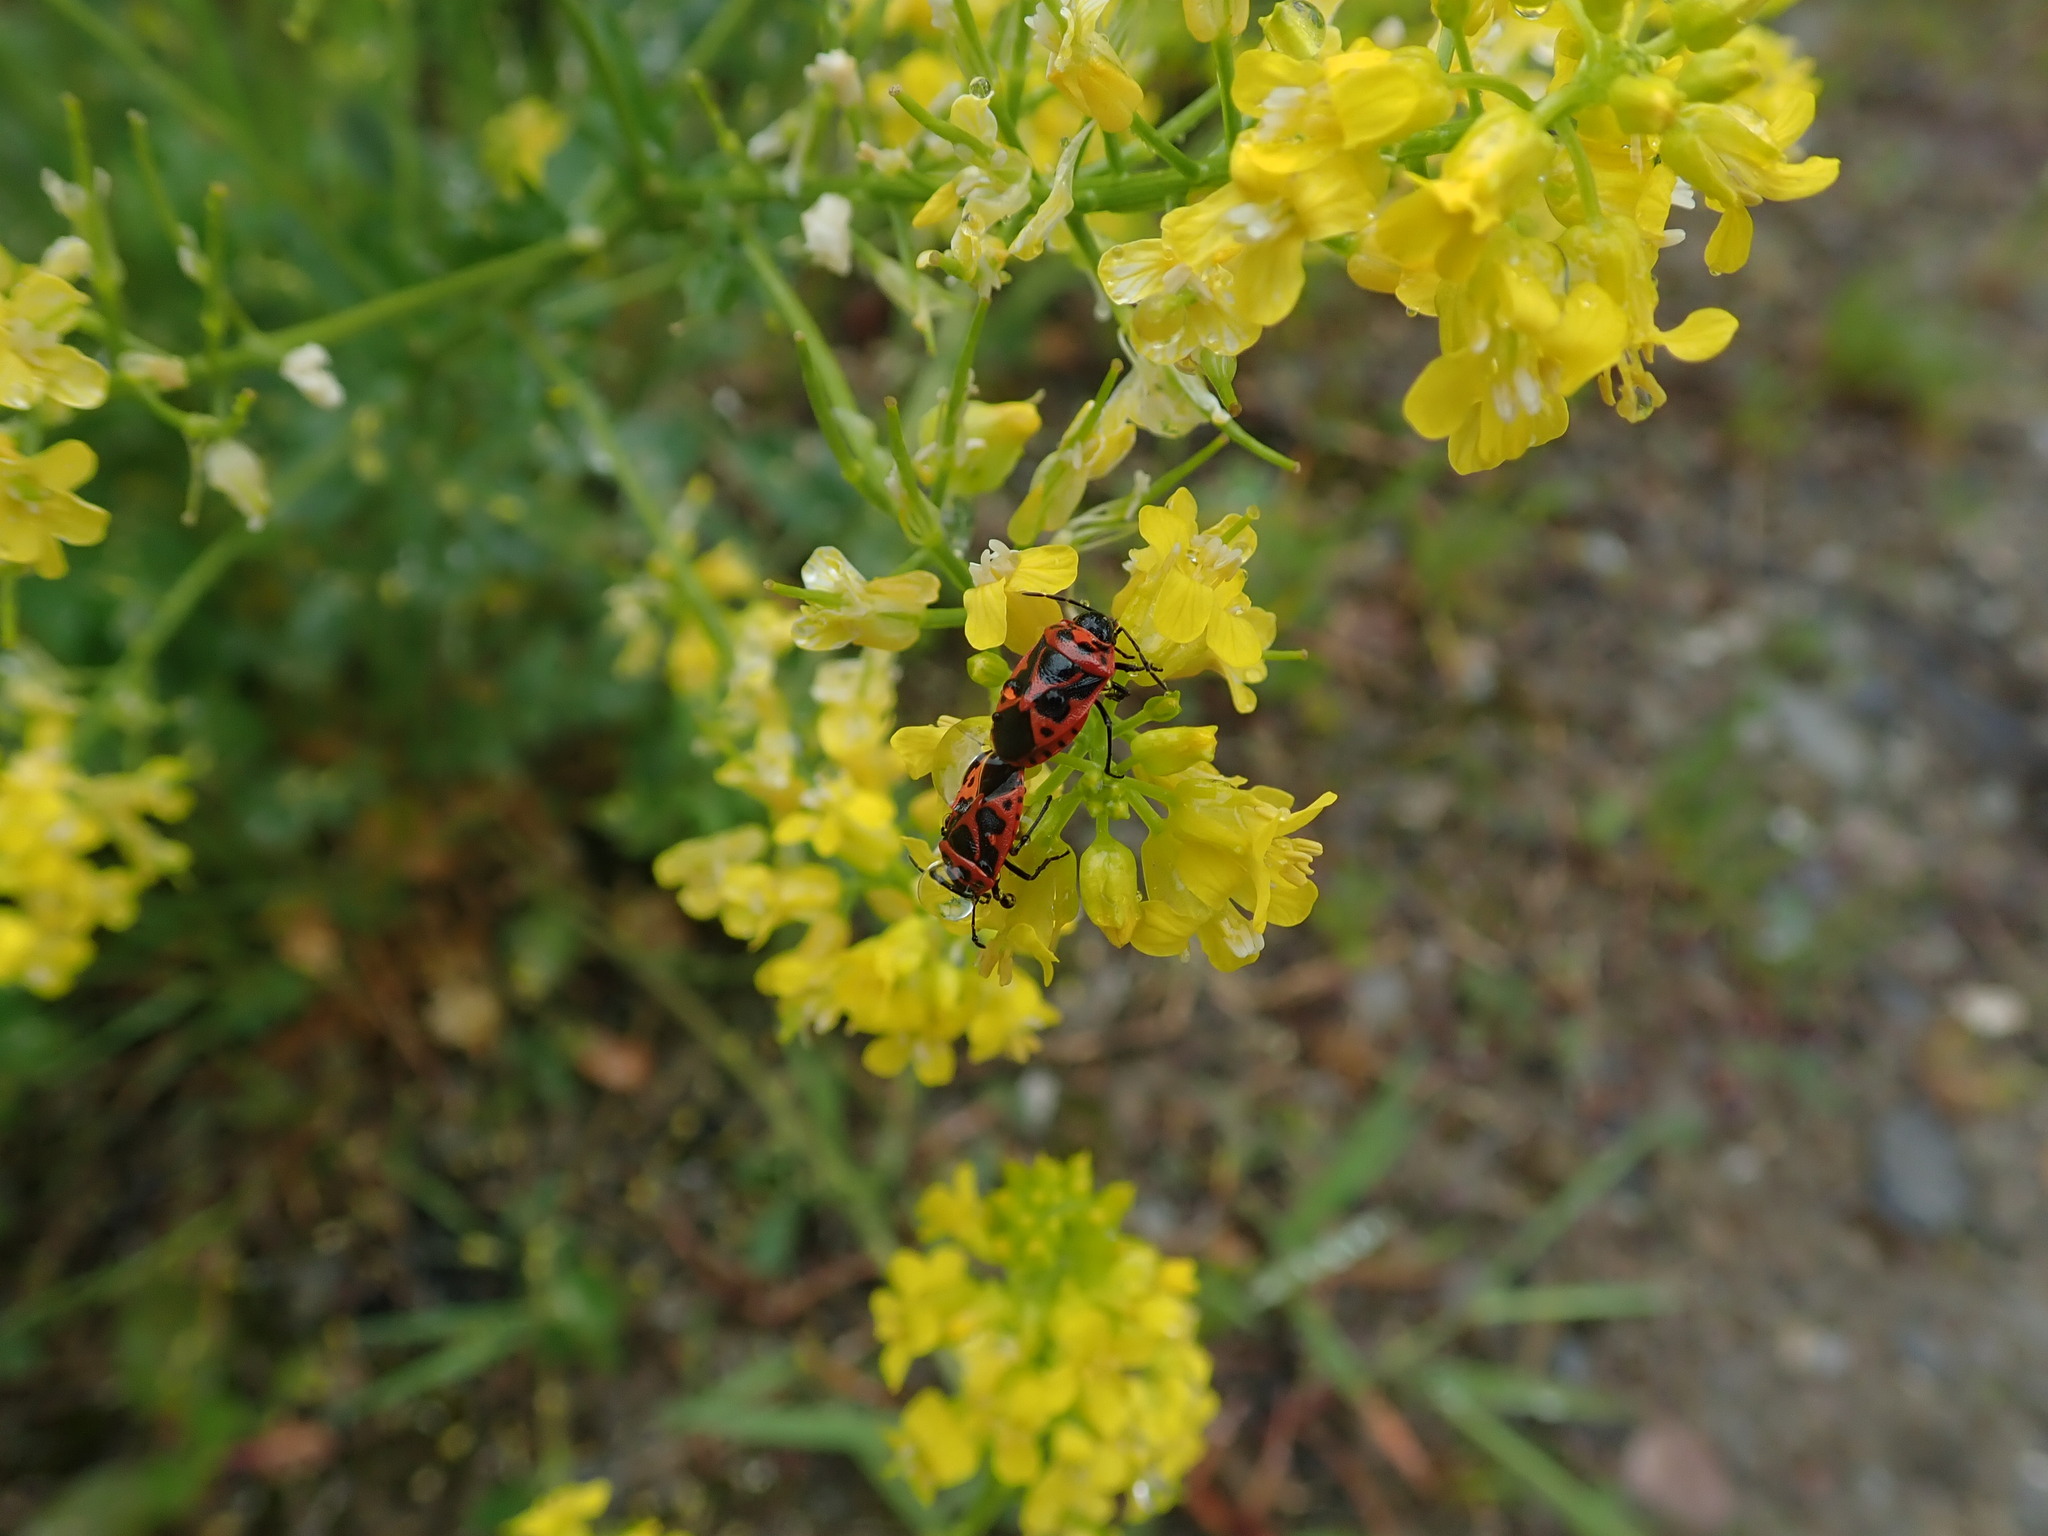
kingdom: Animalia
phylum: Arthropoda
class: Insecta
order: Hemiptera
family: Pentatomidae
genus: Eurydema
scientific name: Eurydema dominulus
